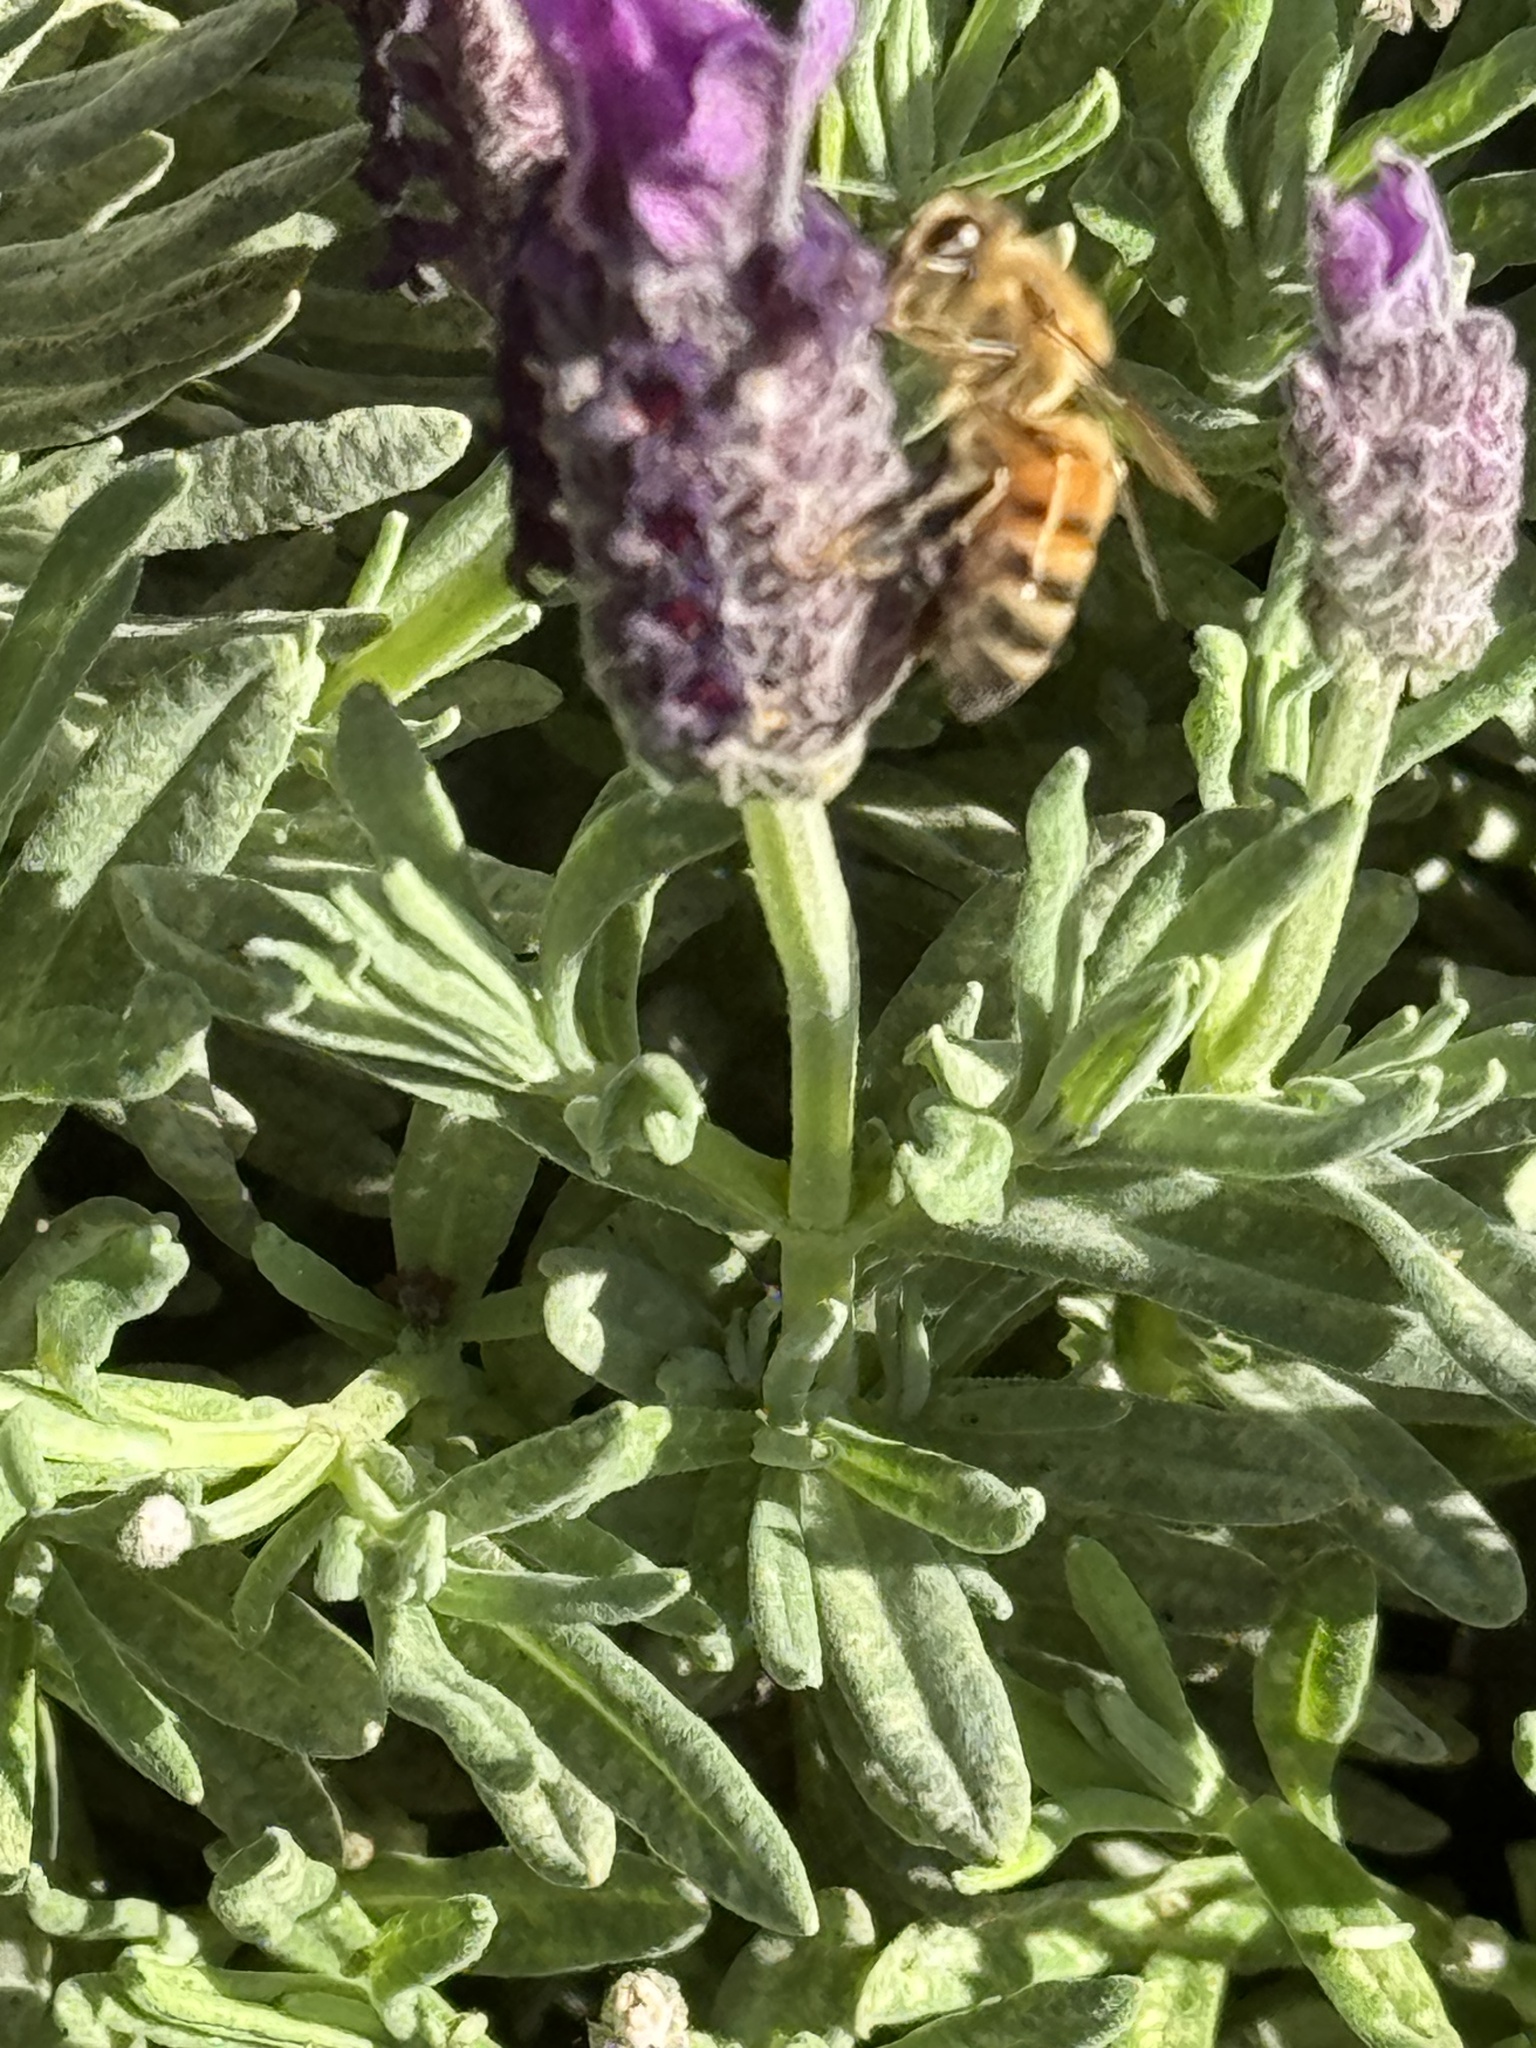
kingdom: Animalia
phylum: Arthropoda
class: Insecta
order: Hymenoptera
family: Apidae
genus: Apis
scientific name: Apis mellifera
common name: Honey bee
